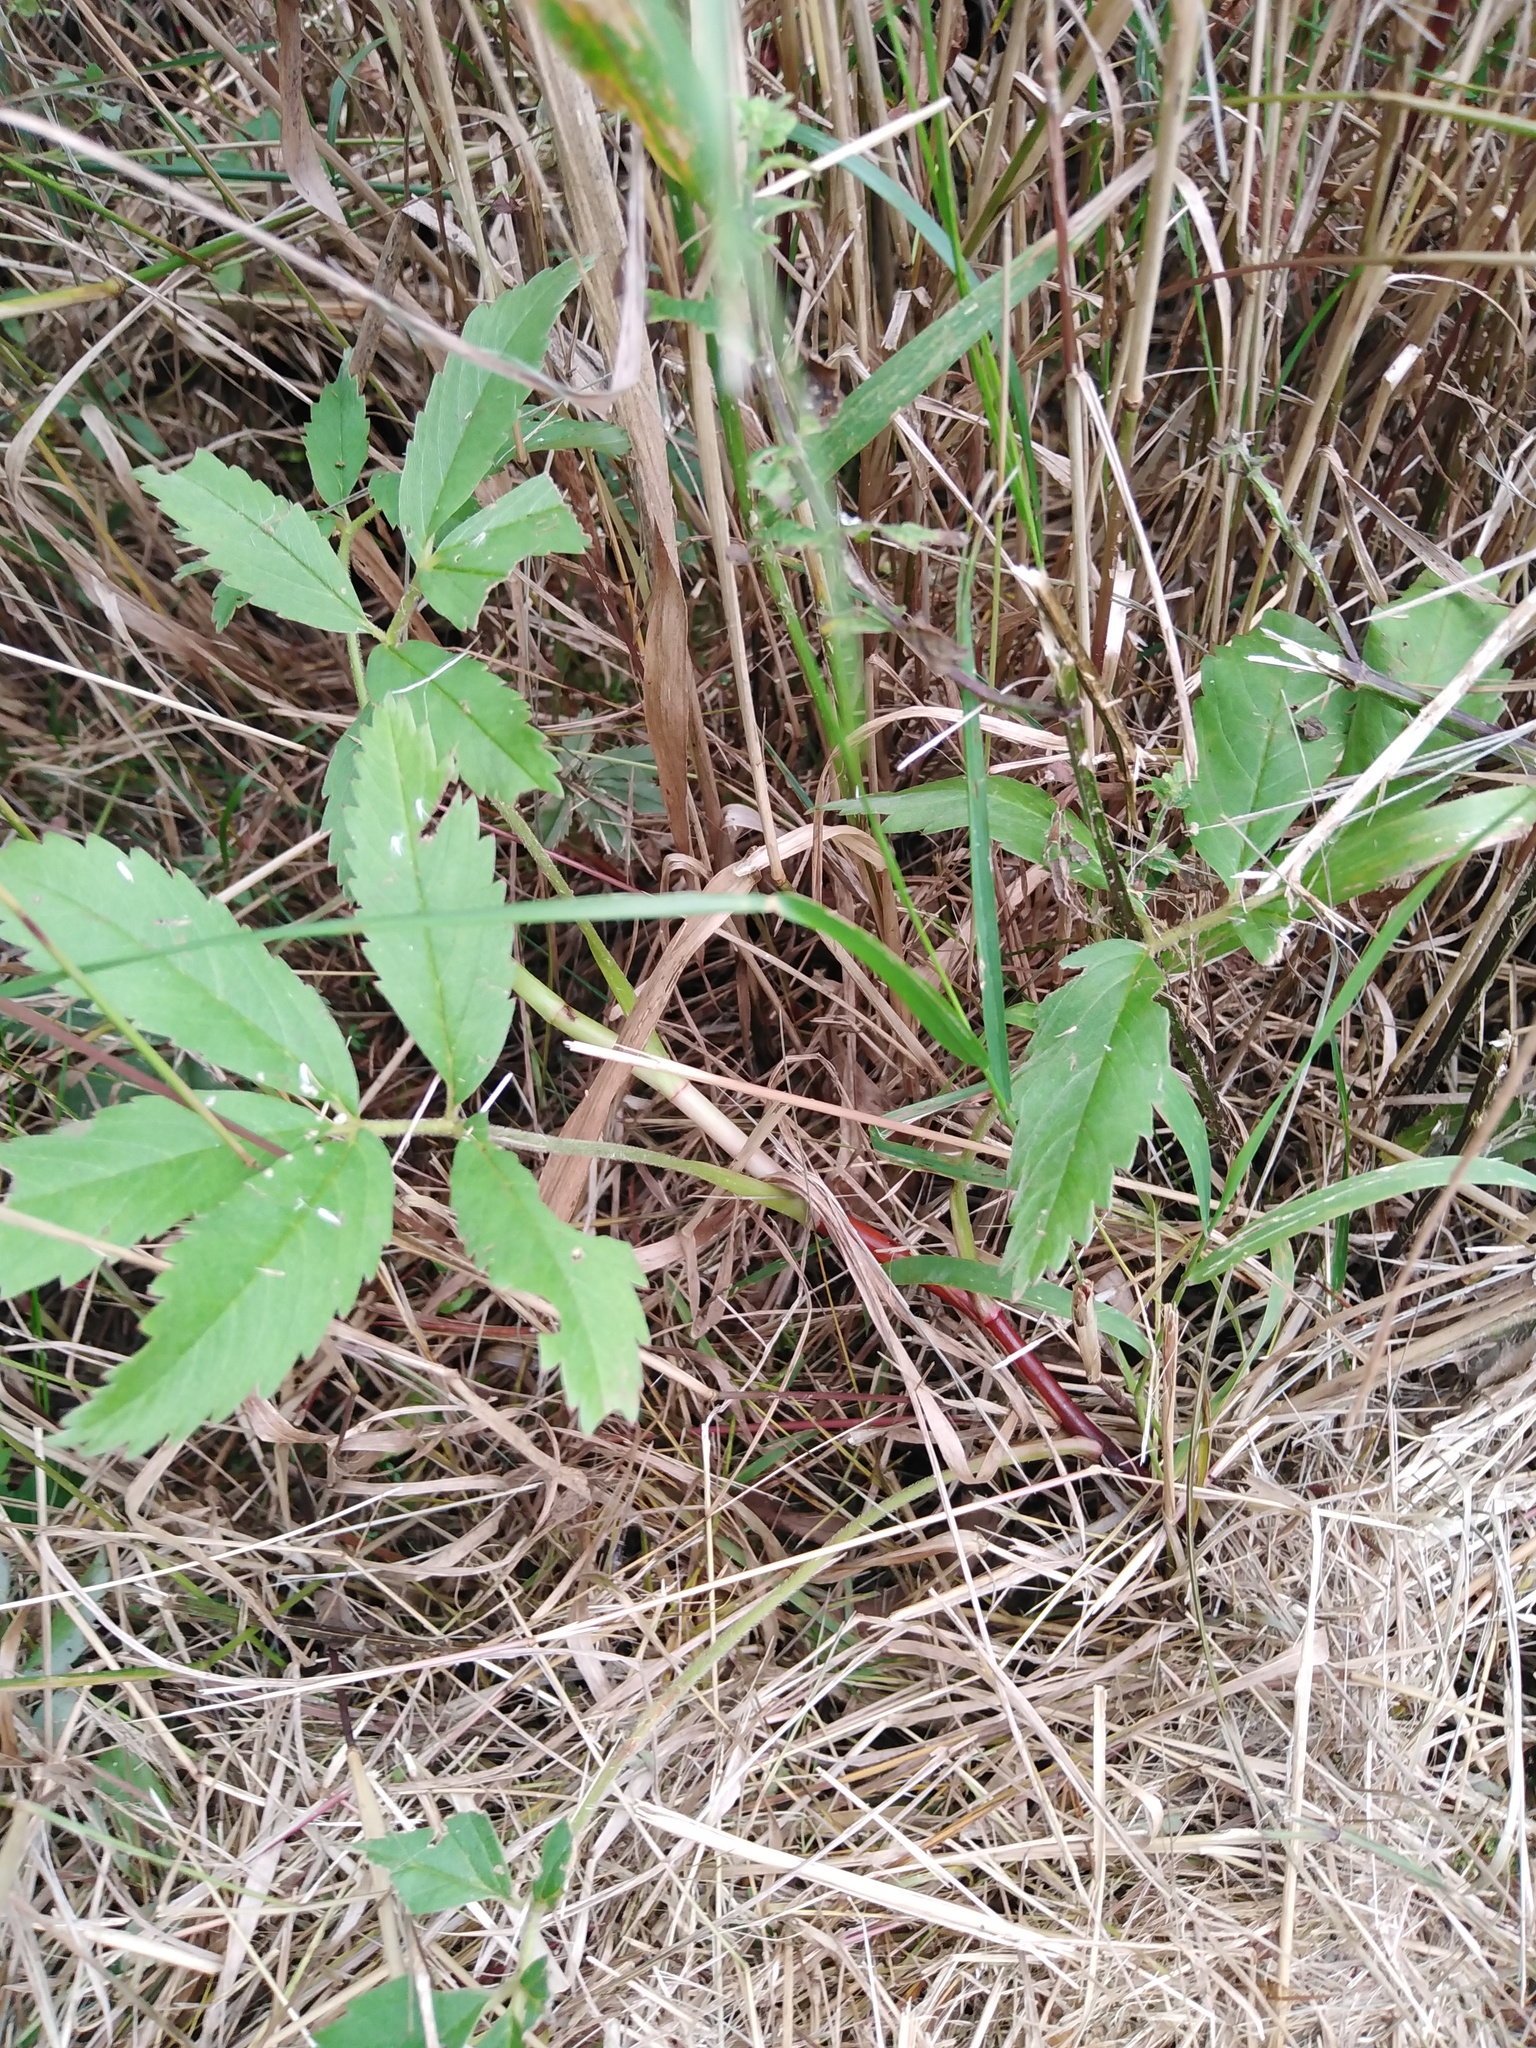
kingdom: Plantae
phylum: Tracheophyta
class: Magnoliopsida
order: Rosales
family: Rosaceae
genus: Comarum
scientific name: Comarum palustre
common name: Marsh cinquefoil
